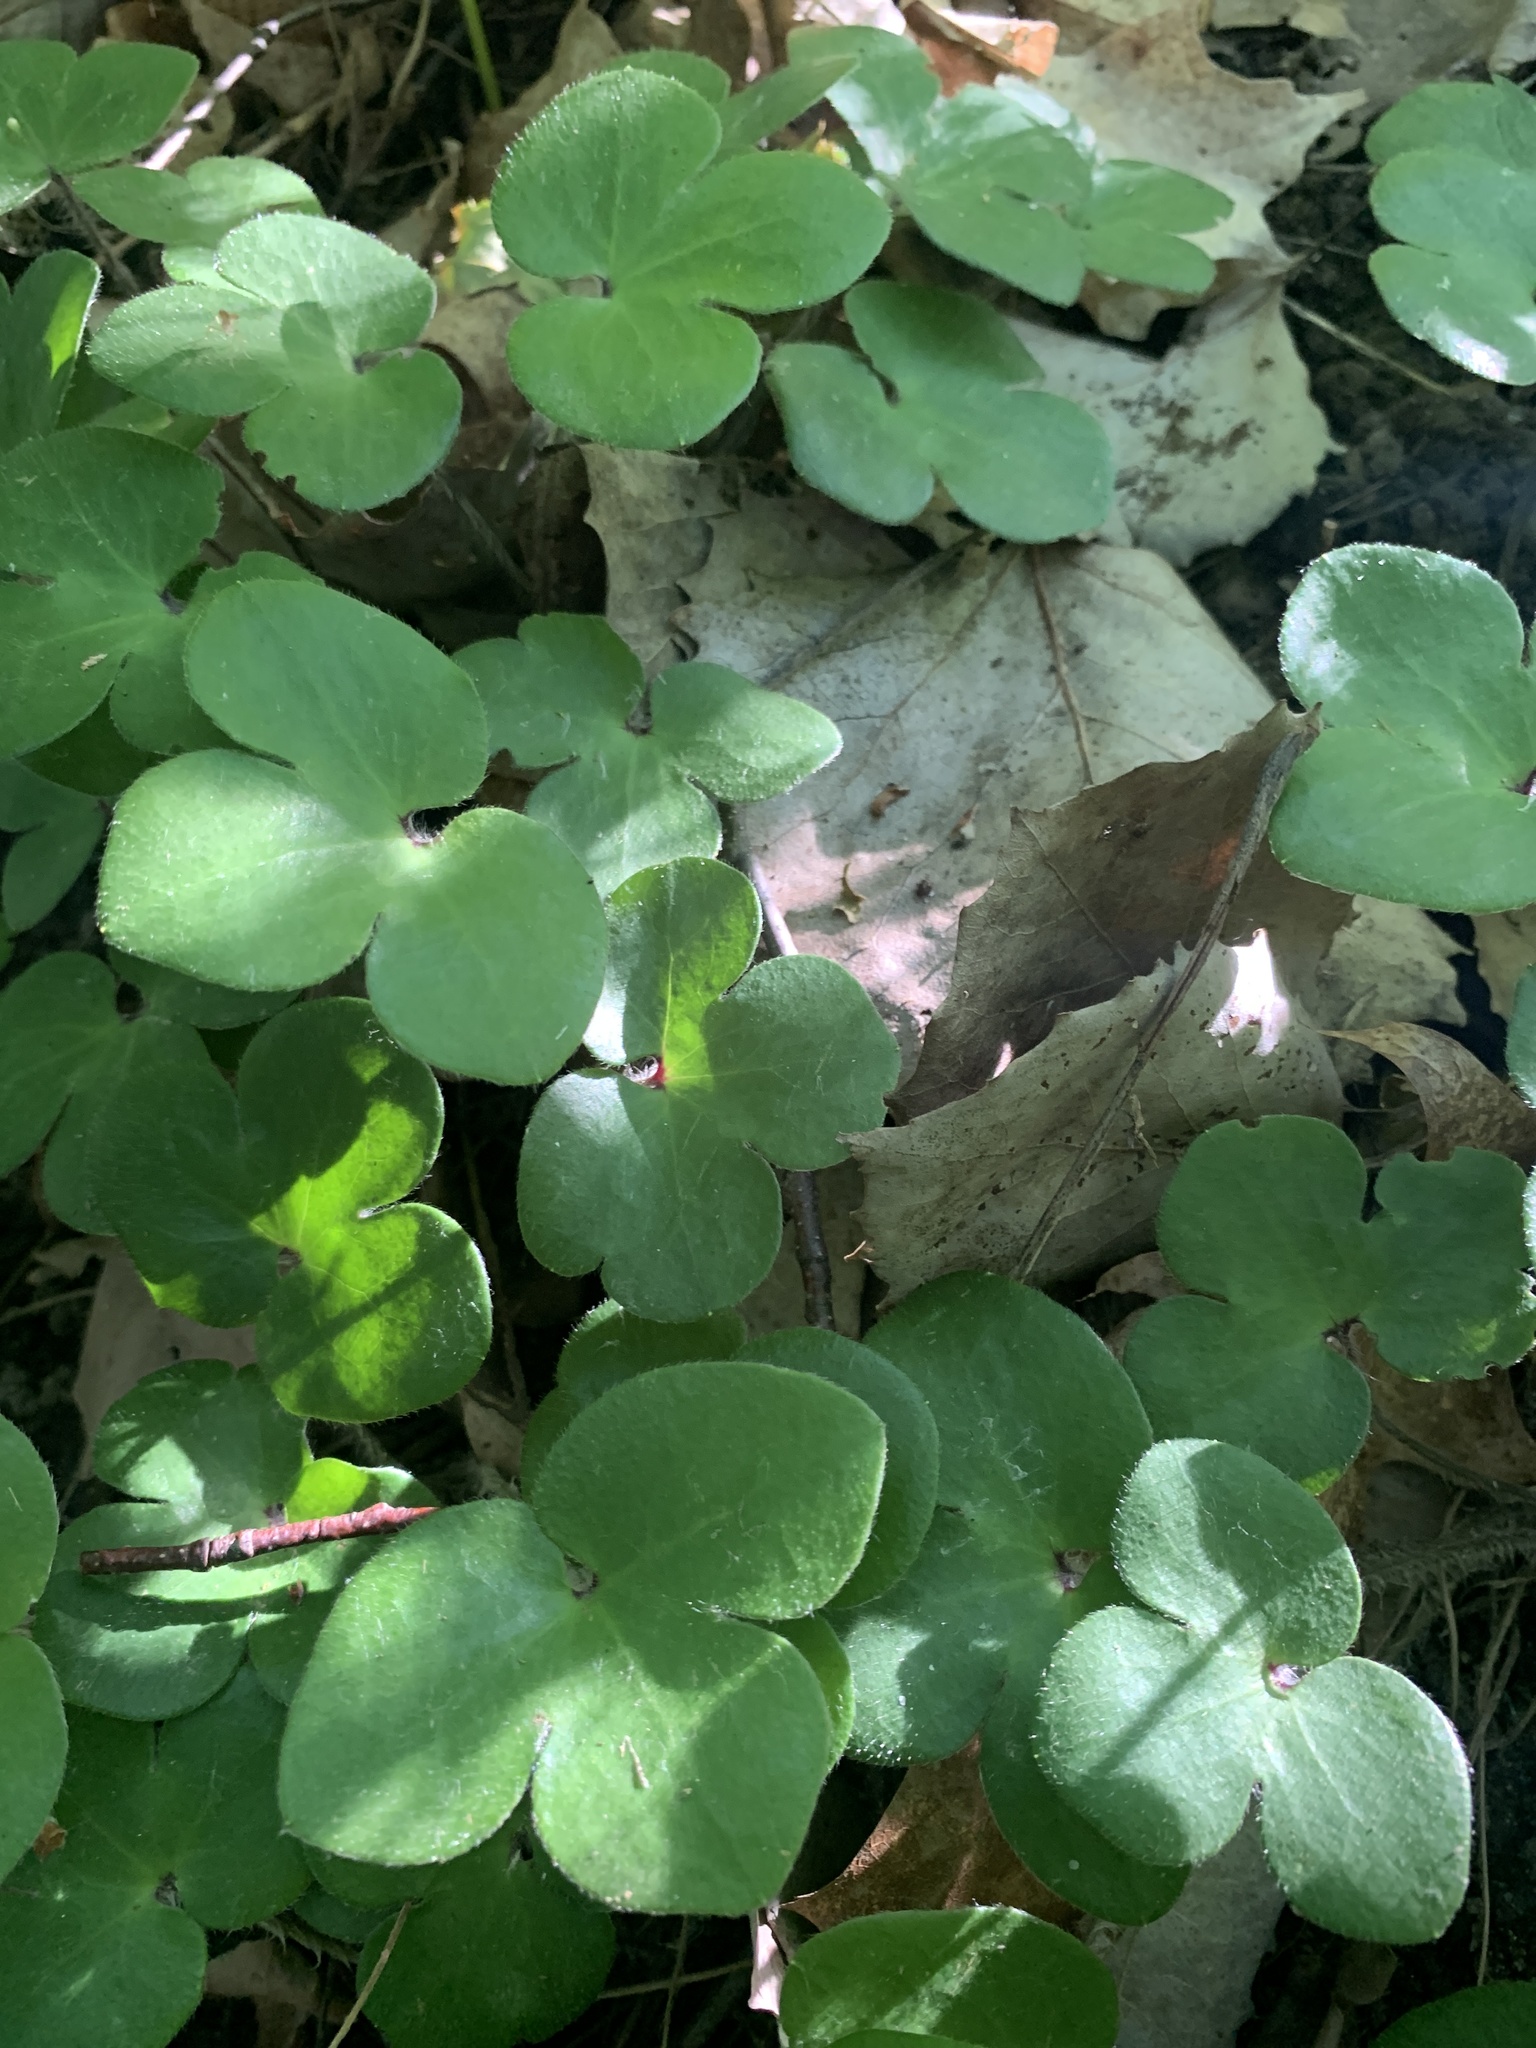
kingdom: Plantae
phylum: Tracheophyta
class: Magnoliopsida
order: Ranunculales
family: Ranunculaceae
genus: Hepatica
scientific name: Hepatica americana
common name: American hepatica
